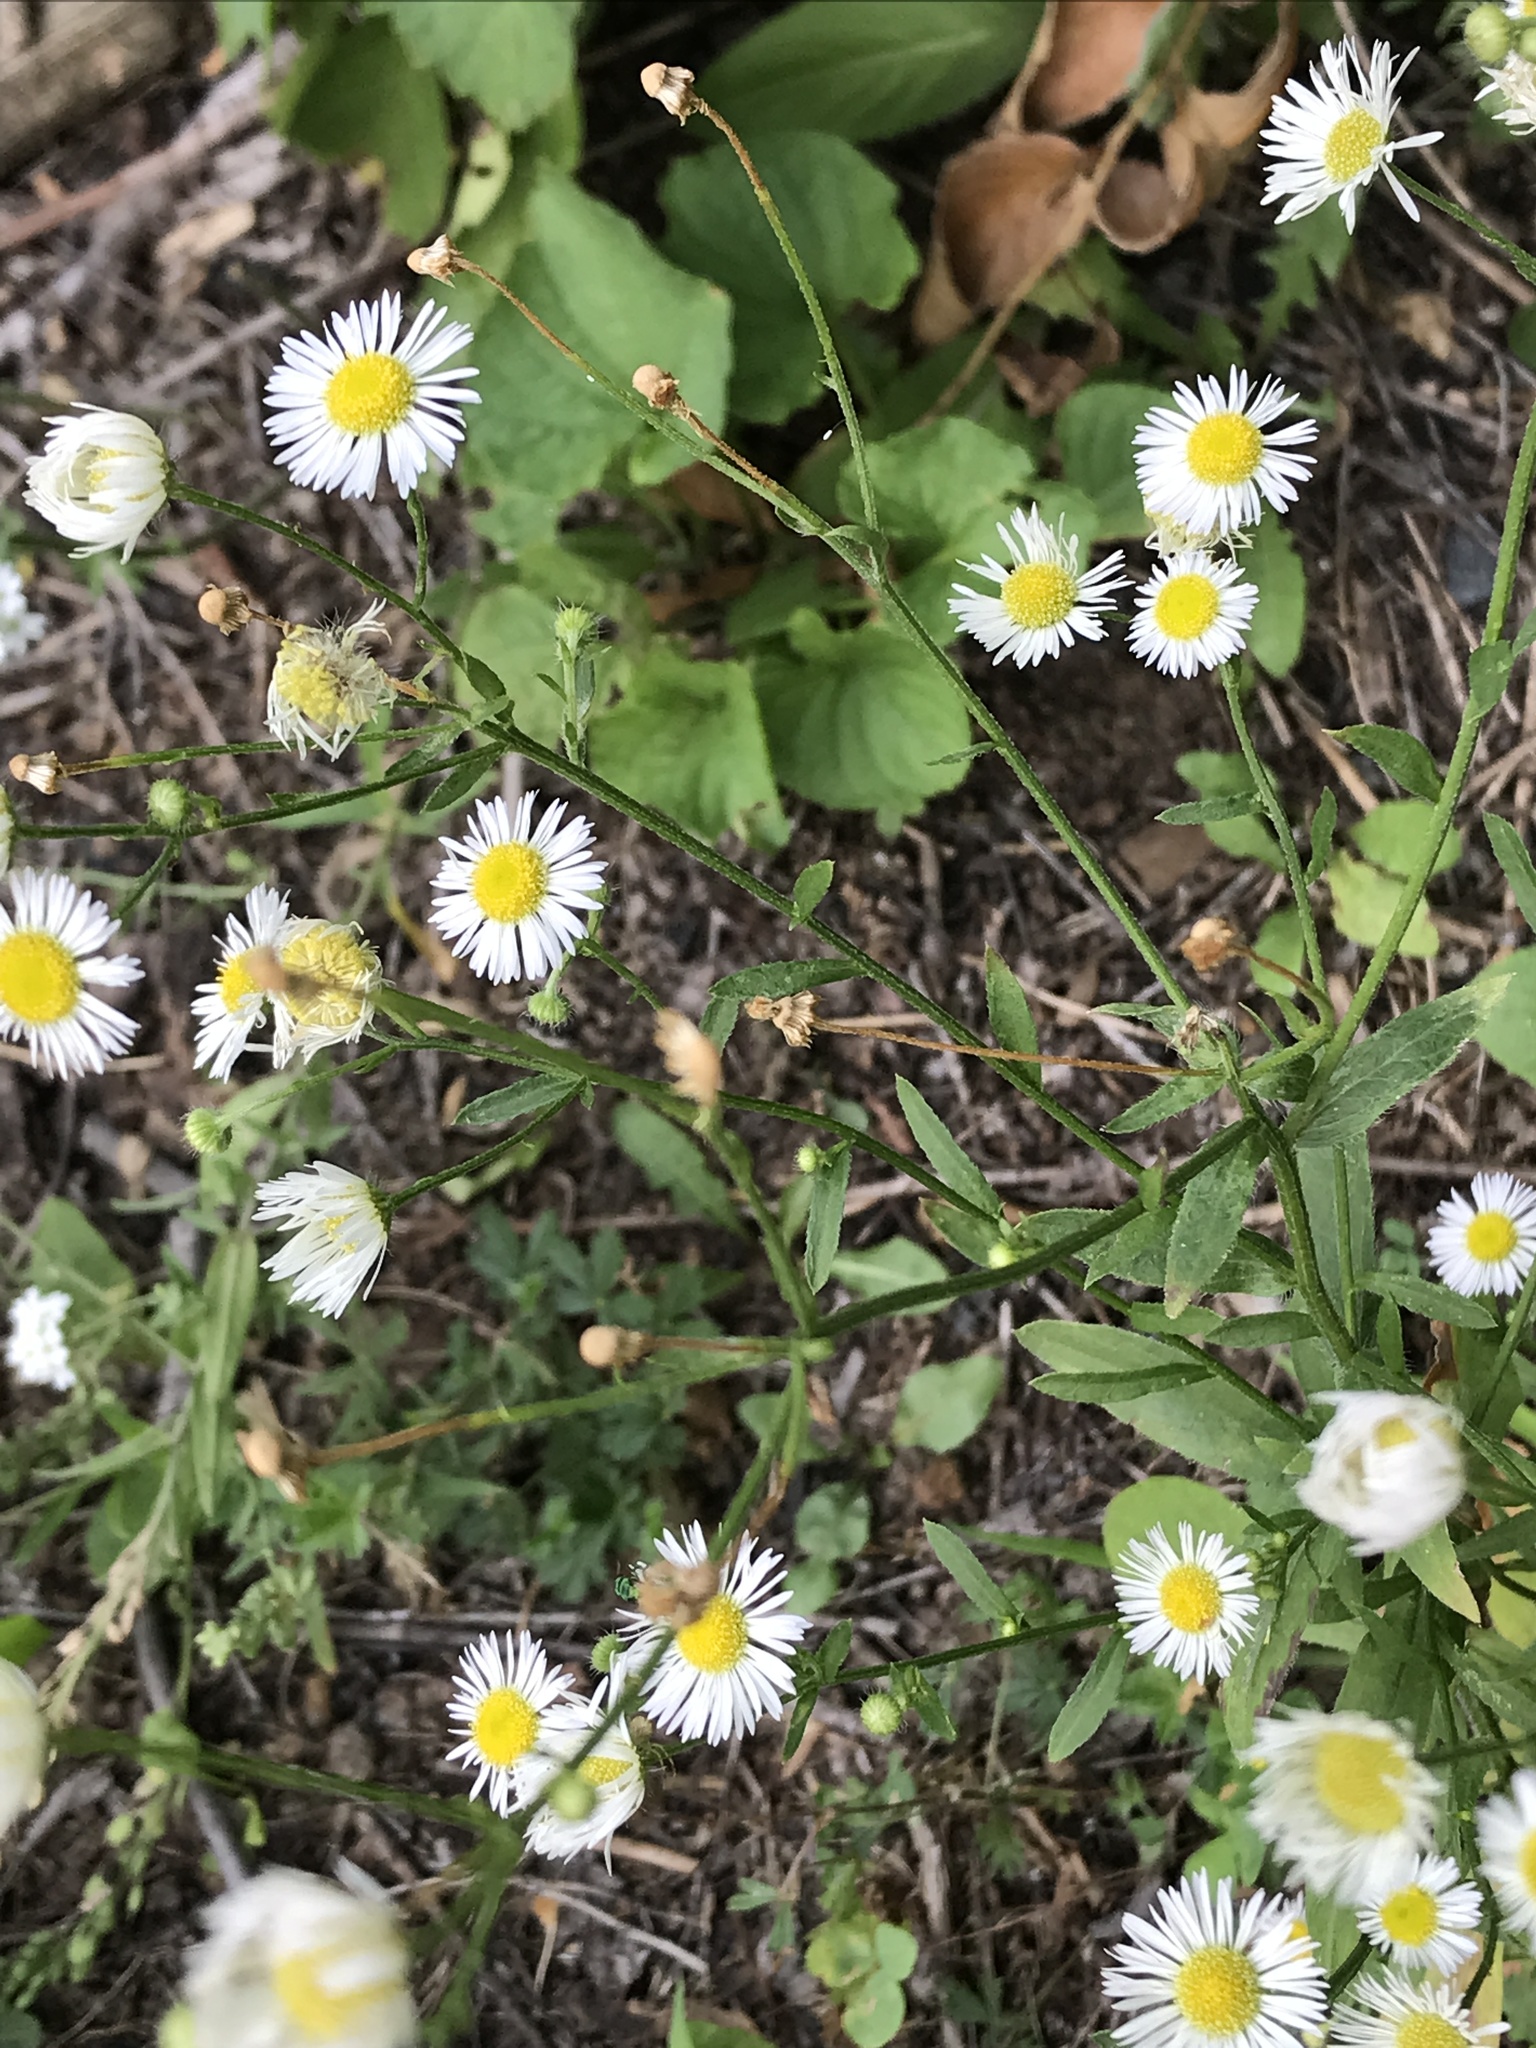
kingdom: Plantae
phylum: Tracheophyta
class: Magnoliopsida
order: Asterales
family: Asteraceae
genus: Erigeron
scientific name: Erigeron strigosus
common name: Common eastern fleabane
